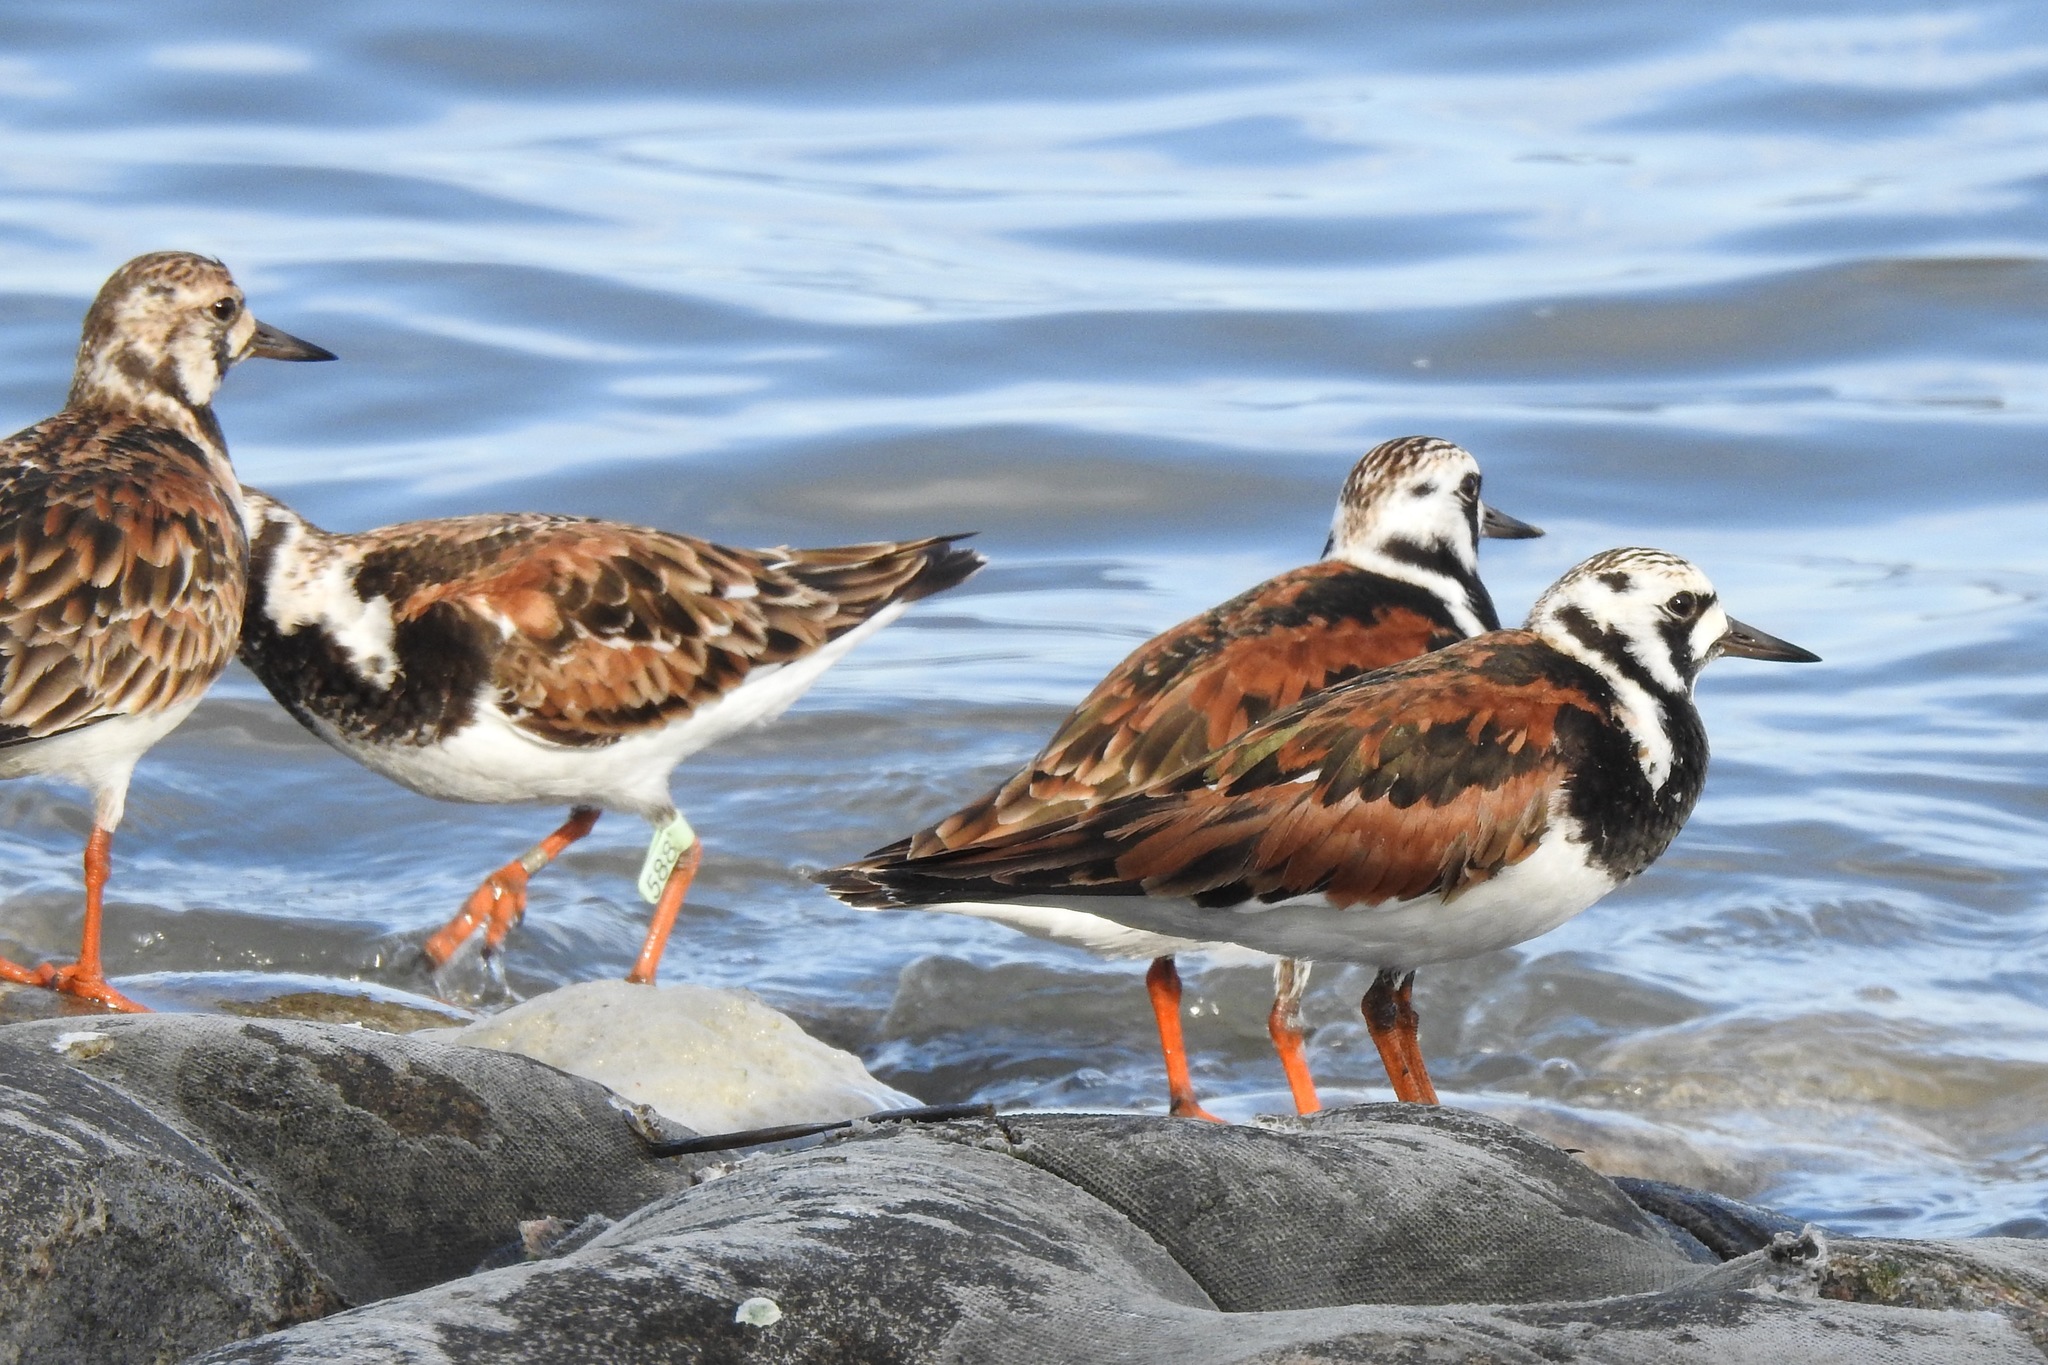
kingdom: Animalia
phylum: Chordata
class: Aves
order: Charadriiformes
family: Scolopacidae
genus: Arenaria
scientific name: Arenaria interpres
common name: Ruddy turnstone
